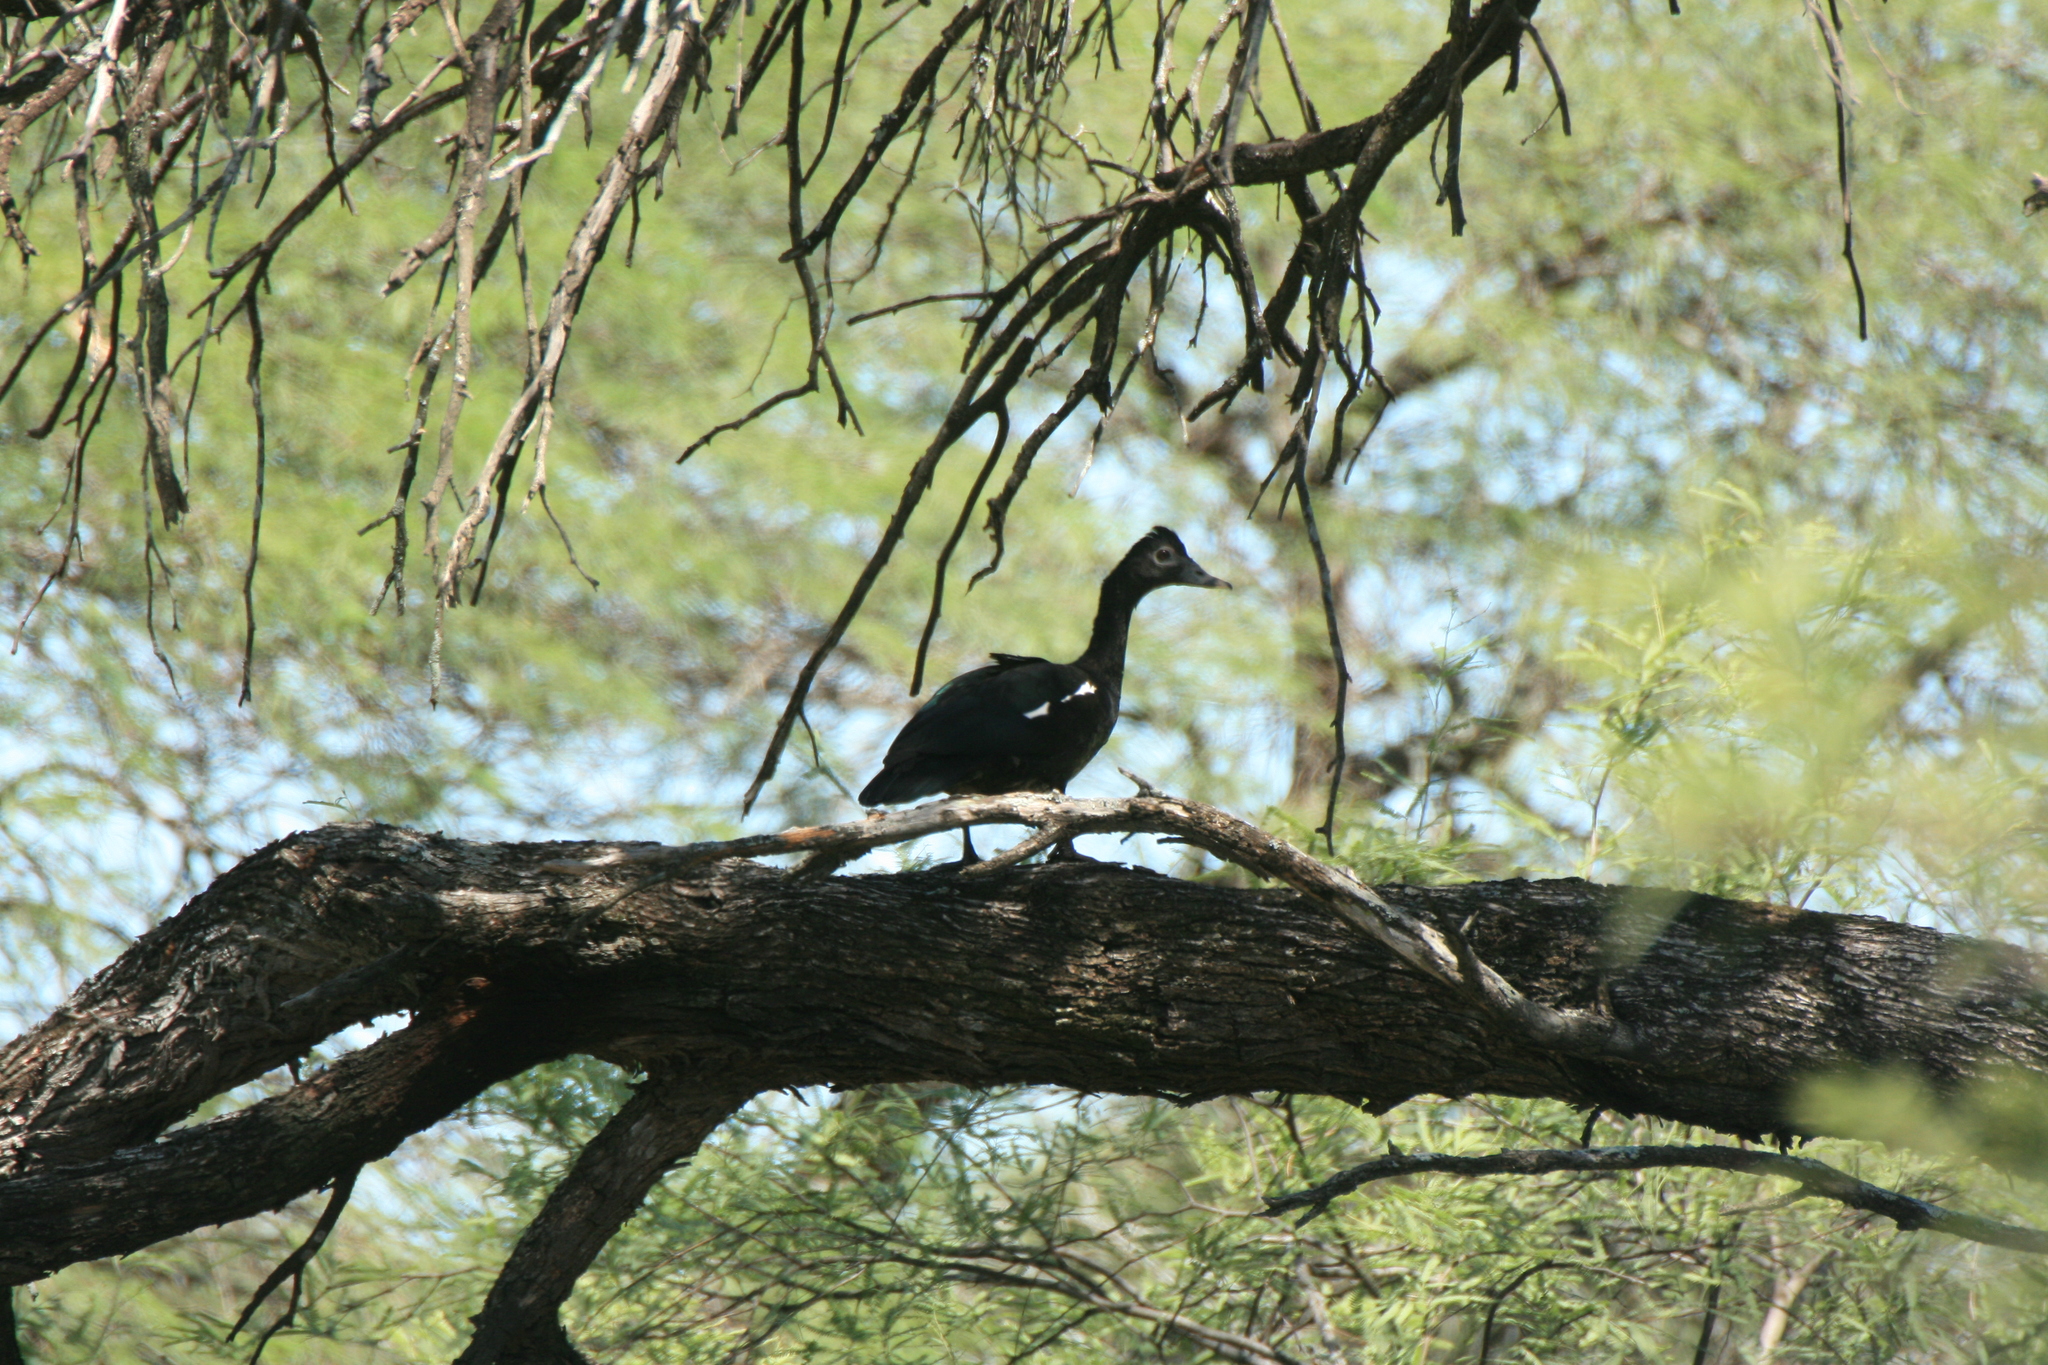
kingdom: Animalia
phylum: Chordata
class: Aves
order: Anseriformes
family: Anatidae
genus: Cairina
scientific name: Cairina moschata
